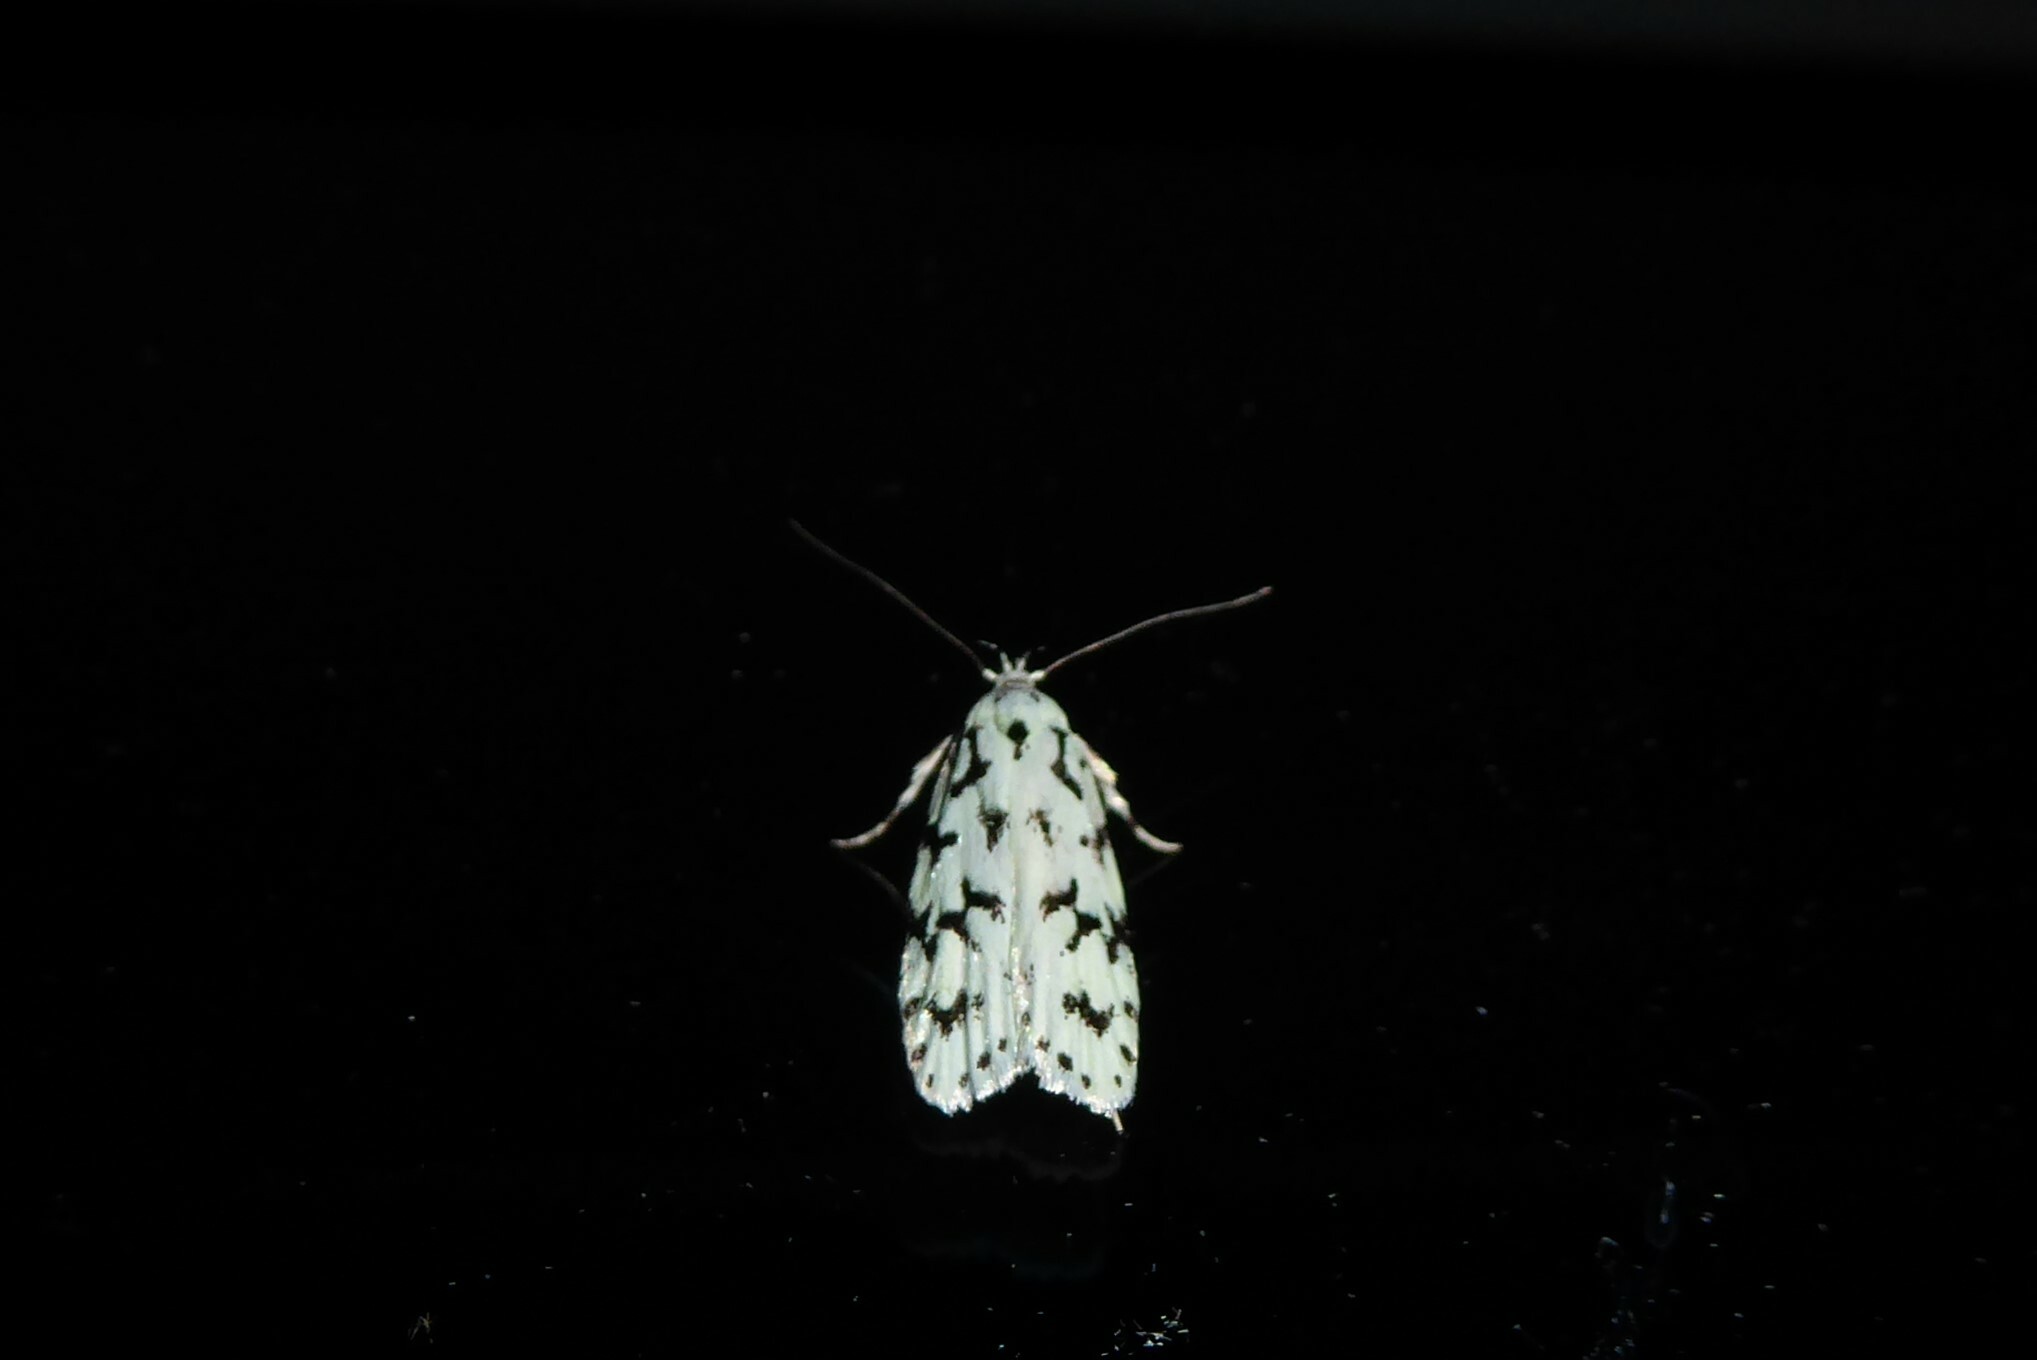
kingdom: Animalia
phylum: Arthropoda
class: Insecta
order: Lepidoptera
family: Oecophoridae
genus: Izatha
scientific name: Izatha huttoni
